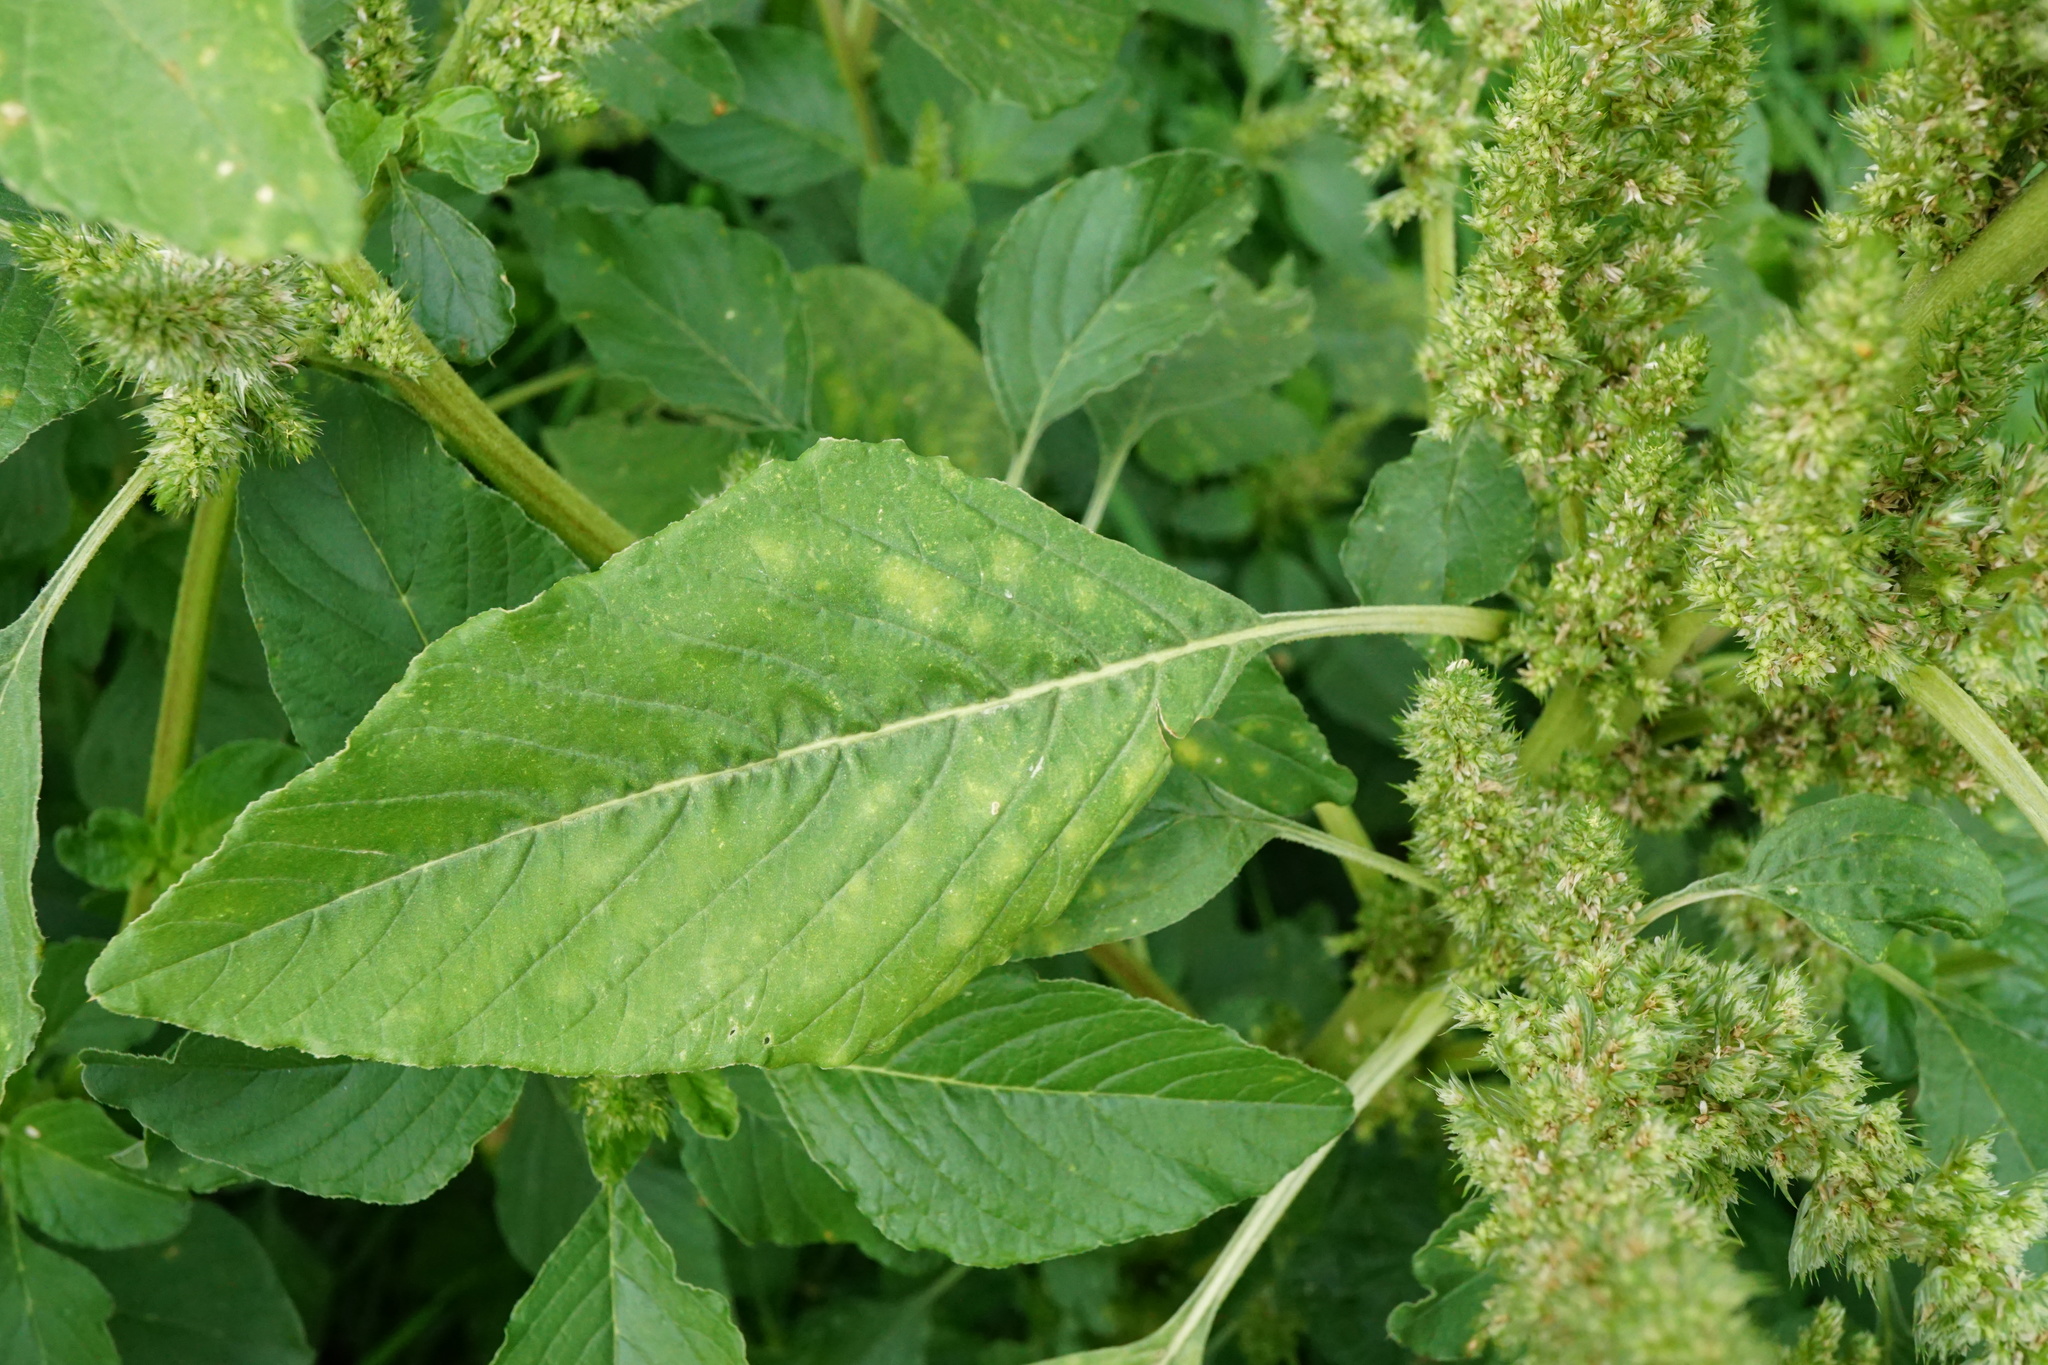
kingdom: Plantae
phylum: Tracheophyta
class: Magnoliopsida
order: Caryophyllales
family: Amaranthaceae
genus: Amaranthus
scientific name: Amaranthus retroflexus
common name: Redroot amaranth
